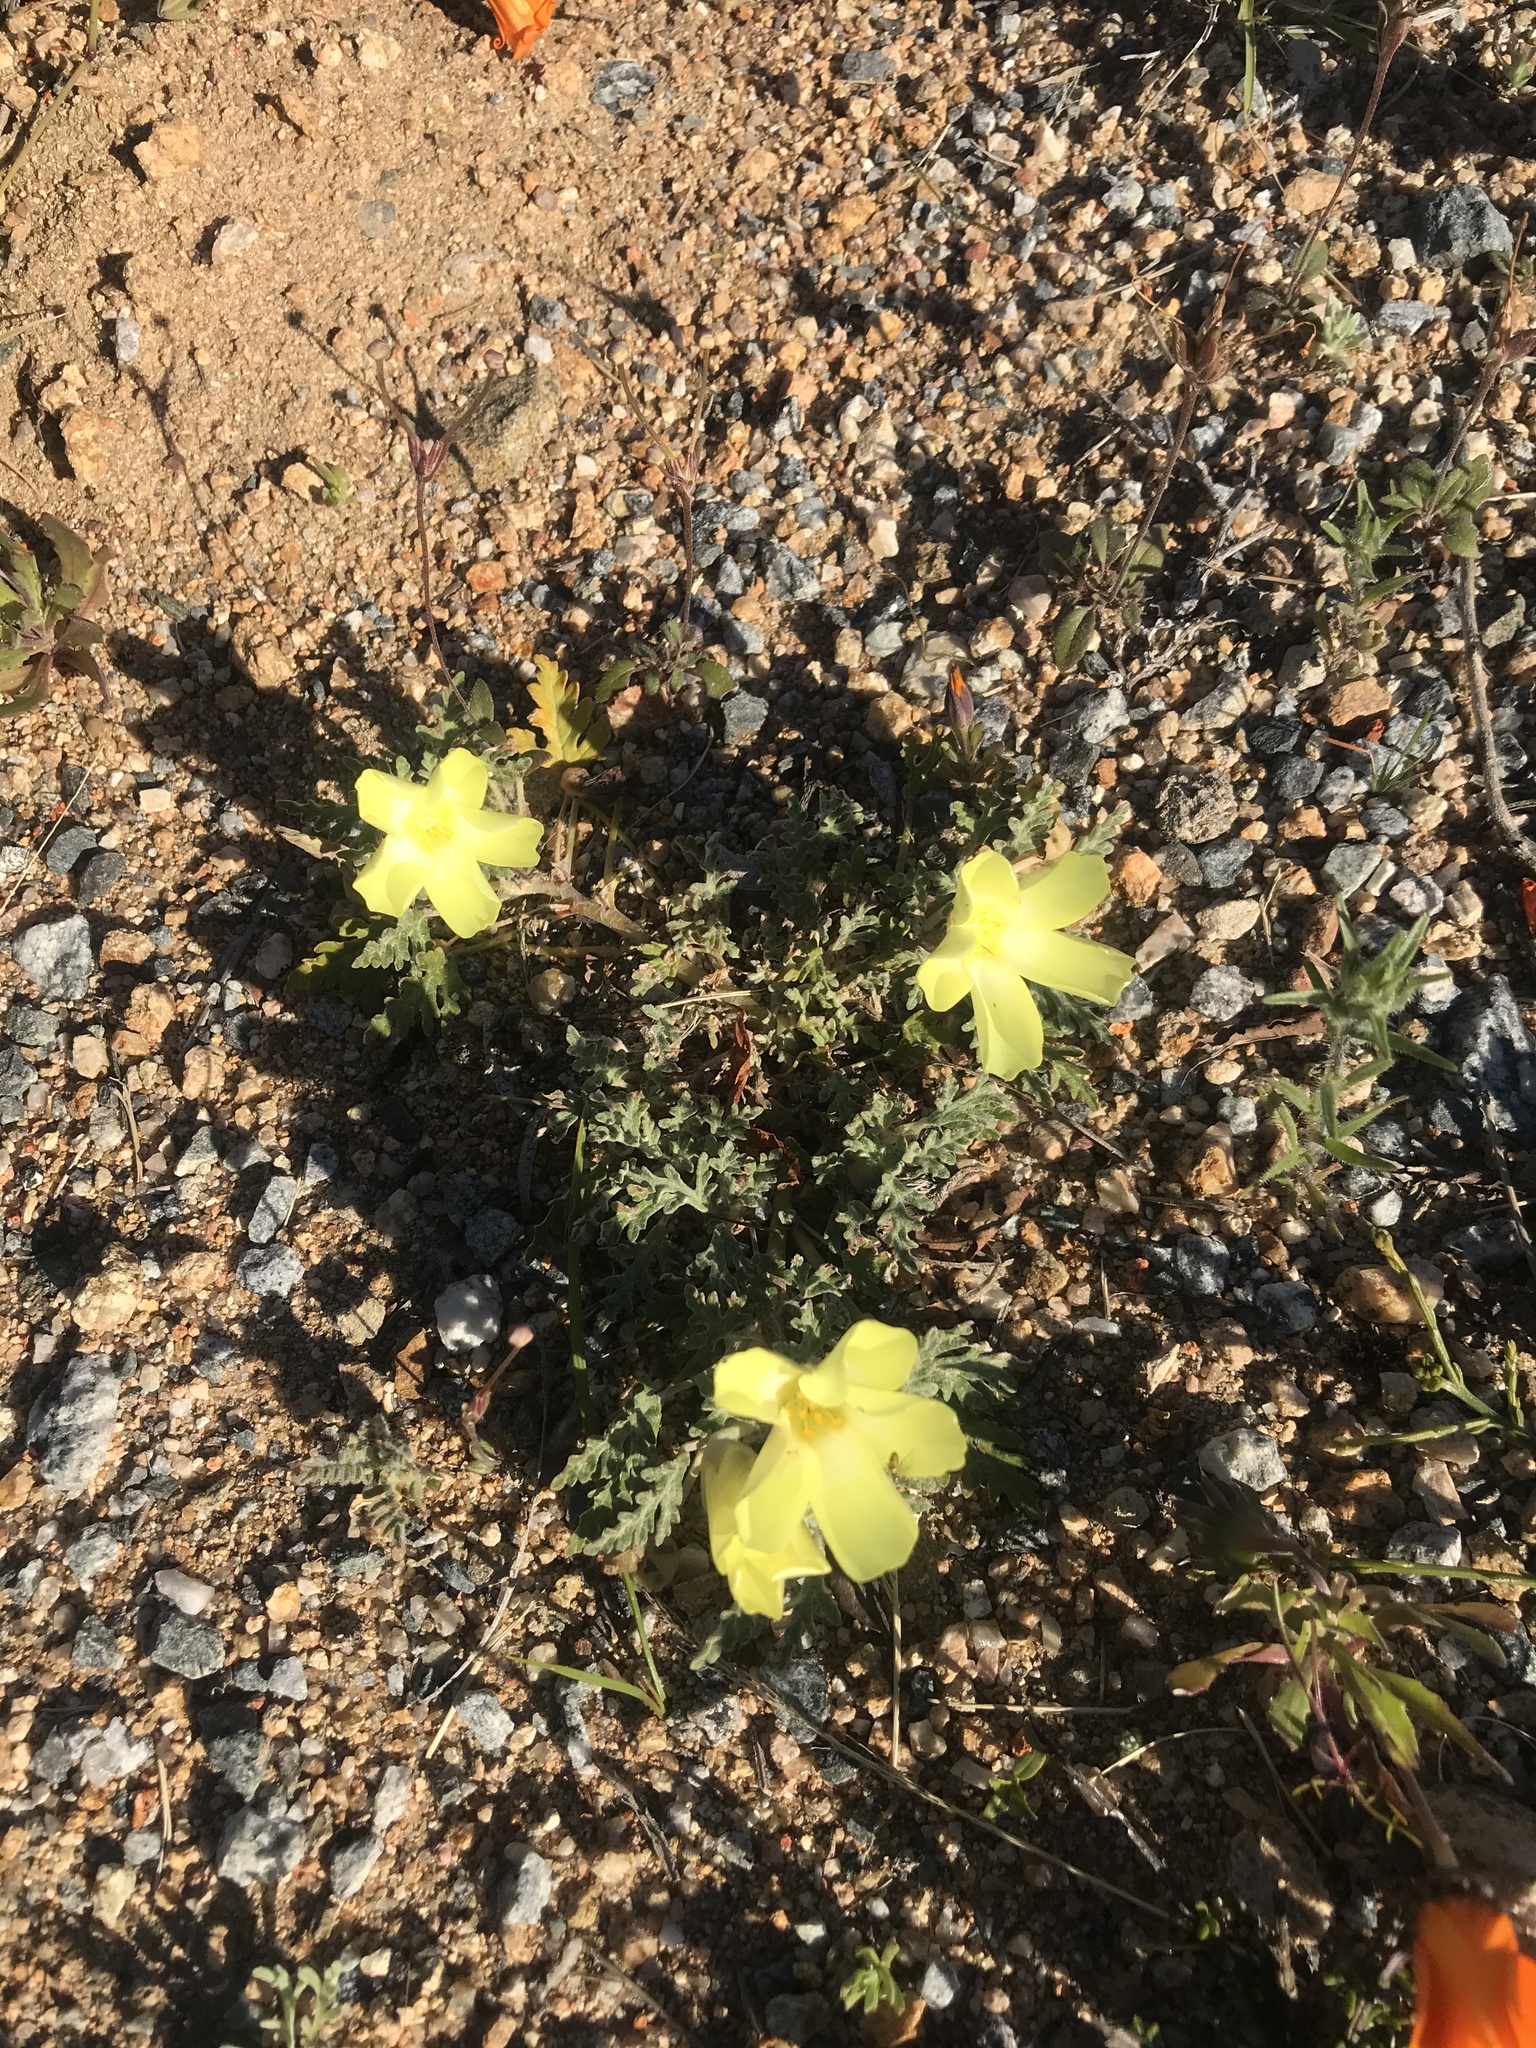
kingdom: Plantae
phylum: Tracheophyta
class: Magnoliopsida
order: Malvales
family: Neuradaceae
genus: Grielum
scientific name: Grielum humifusum
